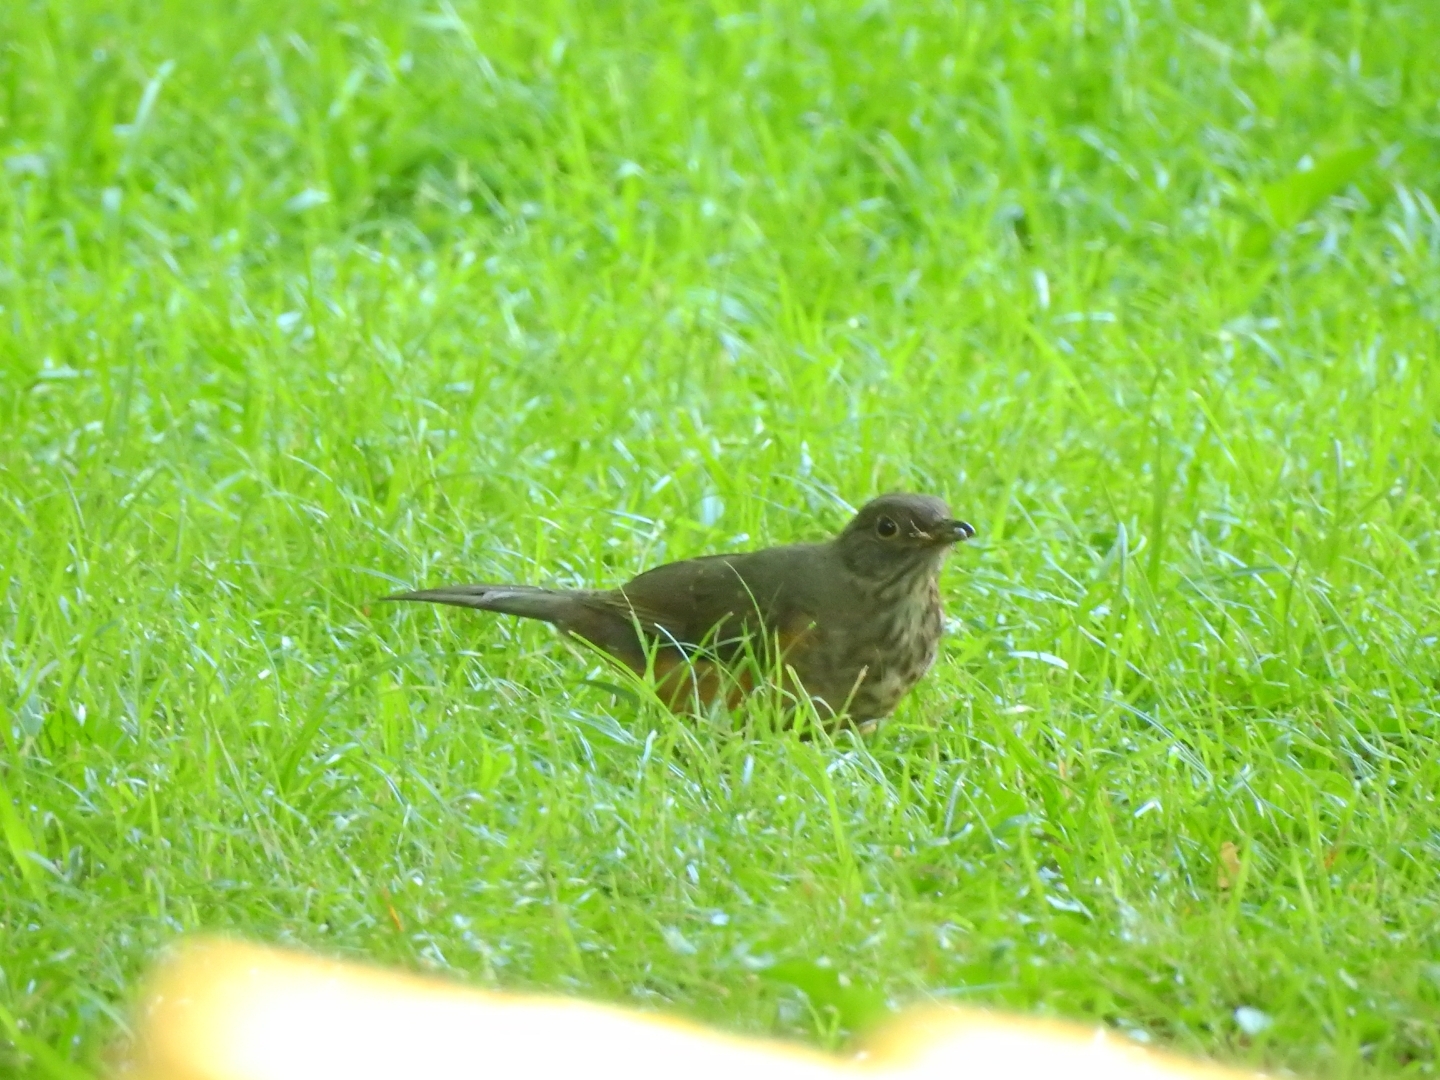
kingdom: Animalia
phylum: Chordata
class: Aves
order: Passeriformes
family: Turdidae
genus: Turdus
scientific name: Turdus rufiventris
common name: Rufous-bellied thrush
